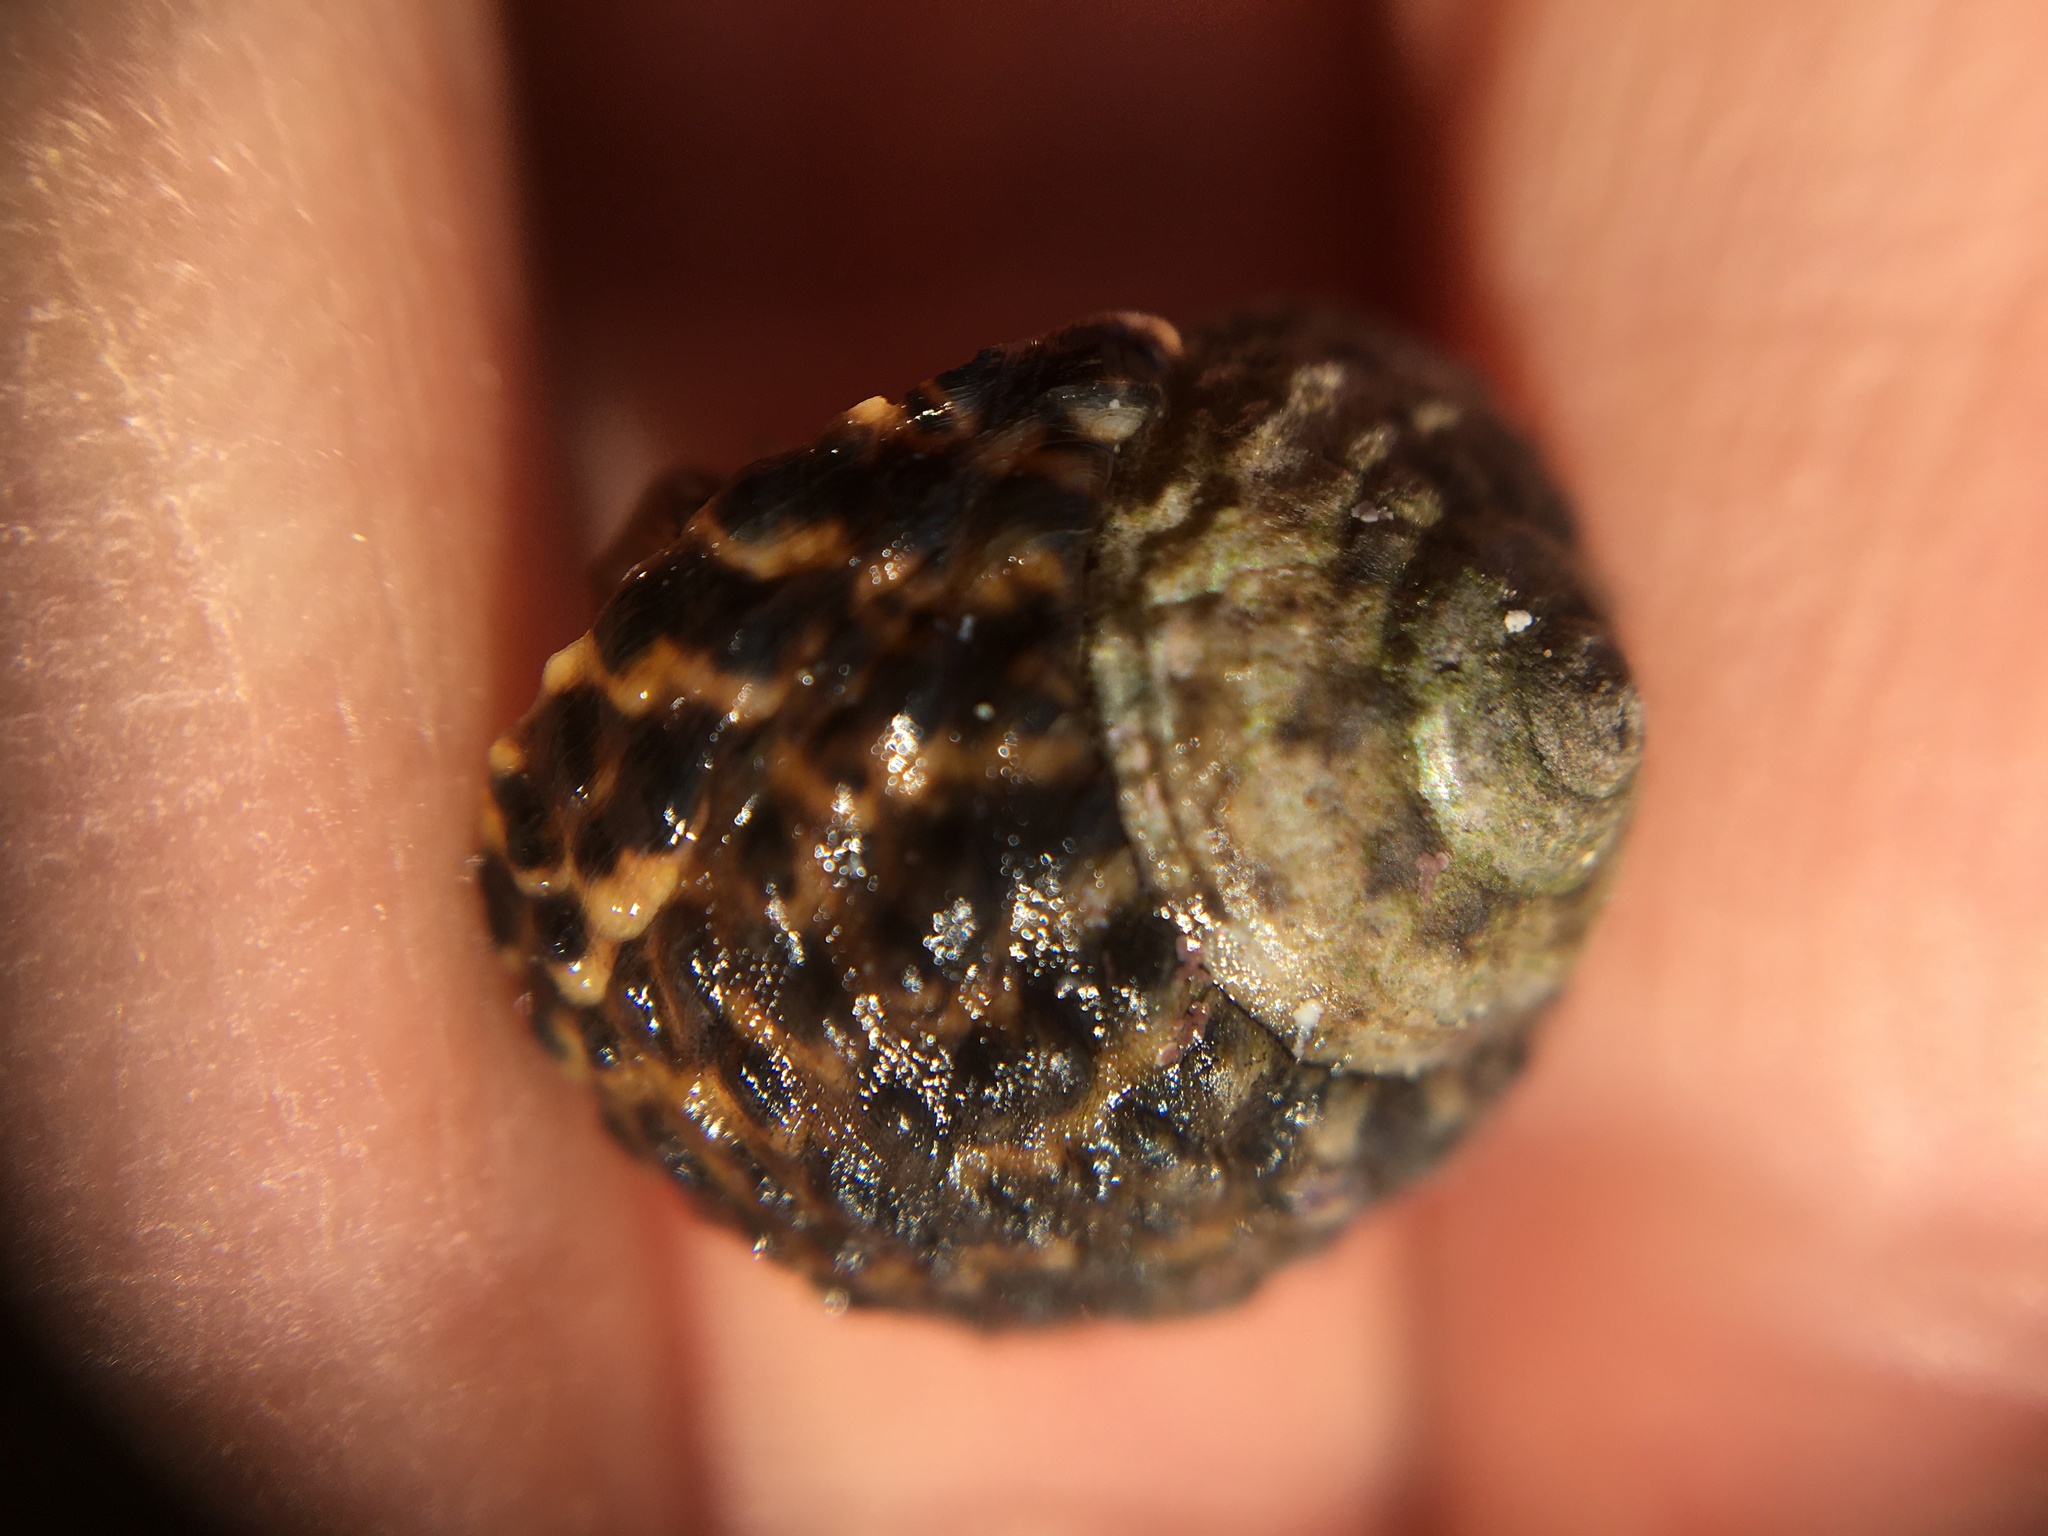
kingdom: Animalia
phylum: Mollusca
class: Gastropoda
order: Trochida
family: Tegulidae
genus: Tegula
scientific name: Tegula eiseni
